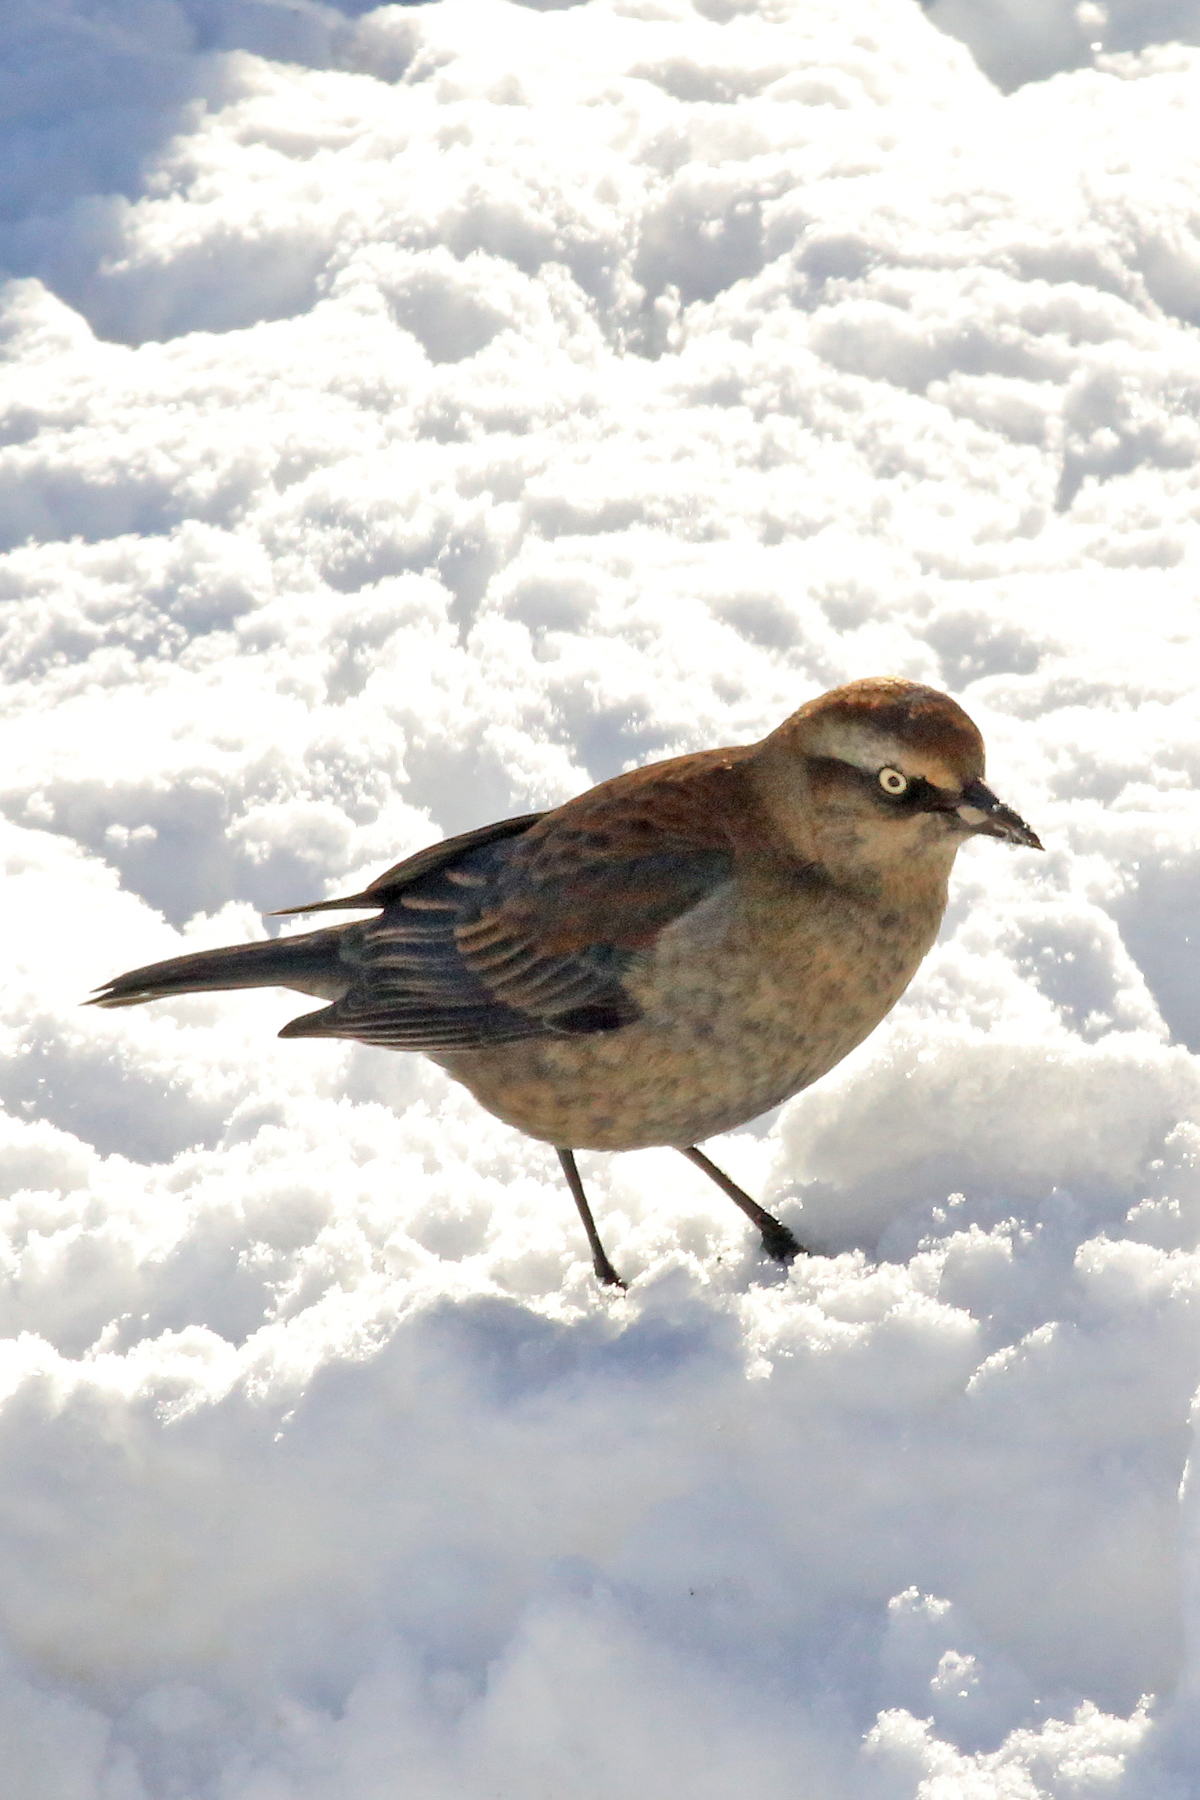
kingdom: Animalia
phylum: Chordata
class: Aves
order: Passeriformes
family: Icteridae
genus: Euphagus
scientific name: Euphagus carolinus
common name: Rusty blackbird
